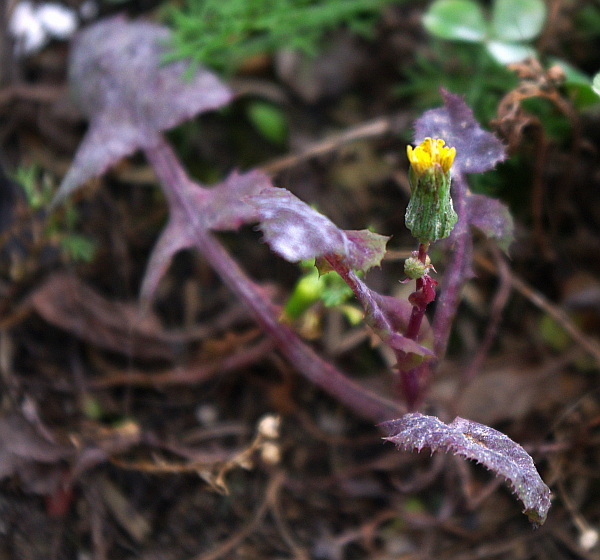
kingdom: Plantae
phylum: Tracheophyta
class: Magnoliopsida
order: Asterales
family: Asteraceae
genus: Sonchus
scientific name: Sonchus oleraceus
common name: Common sowthistle
